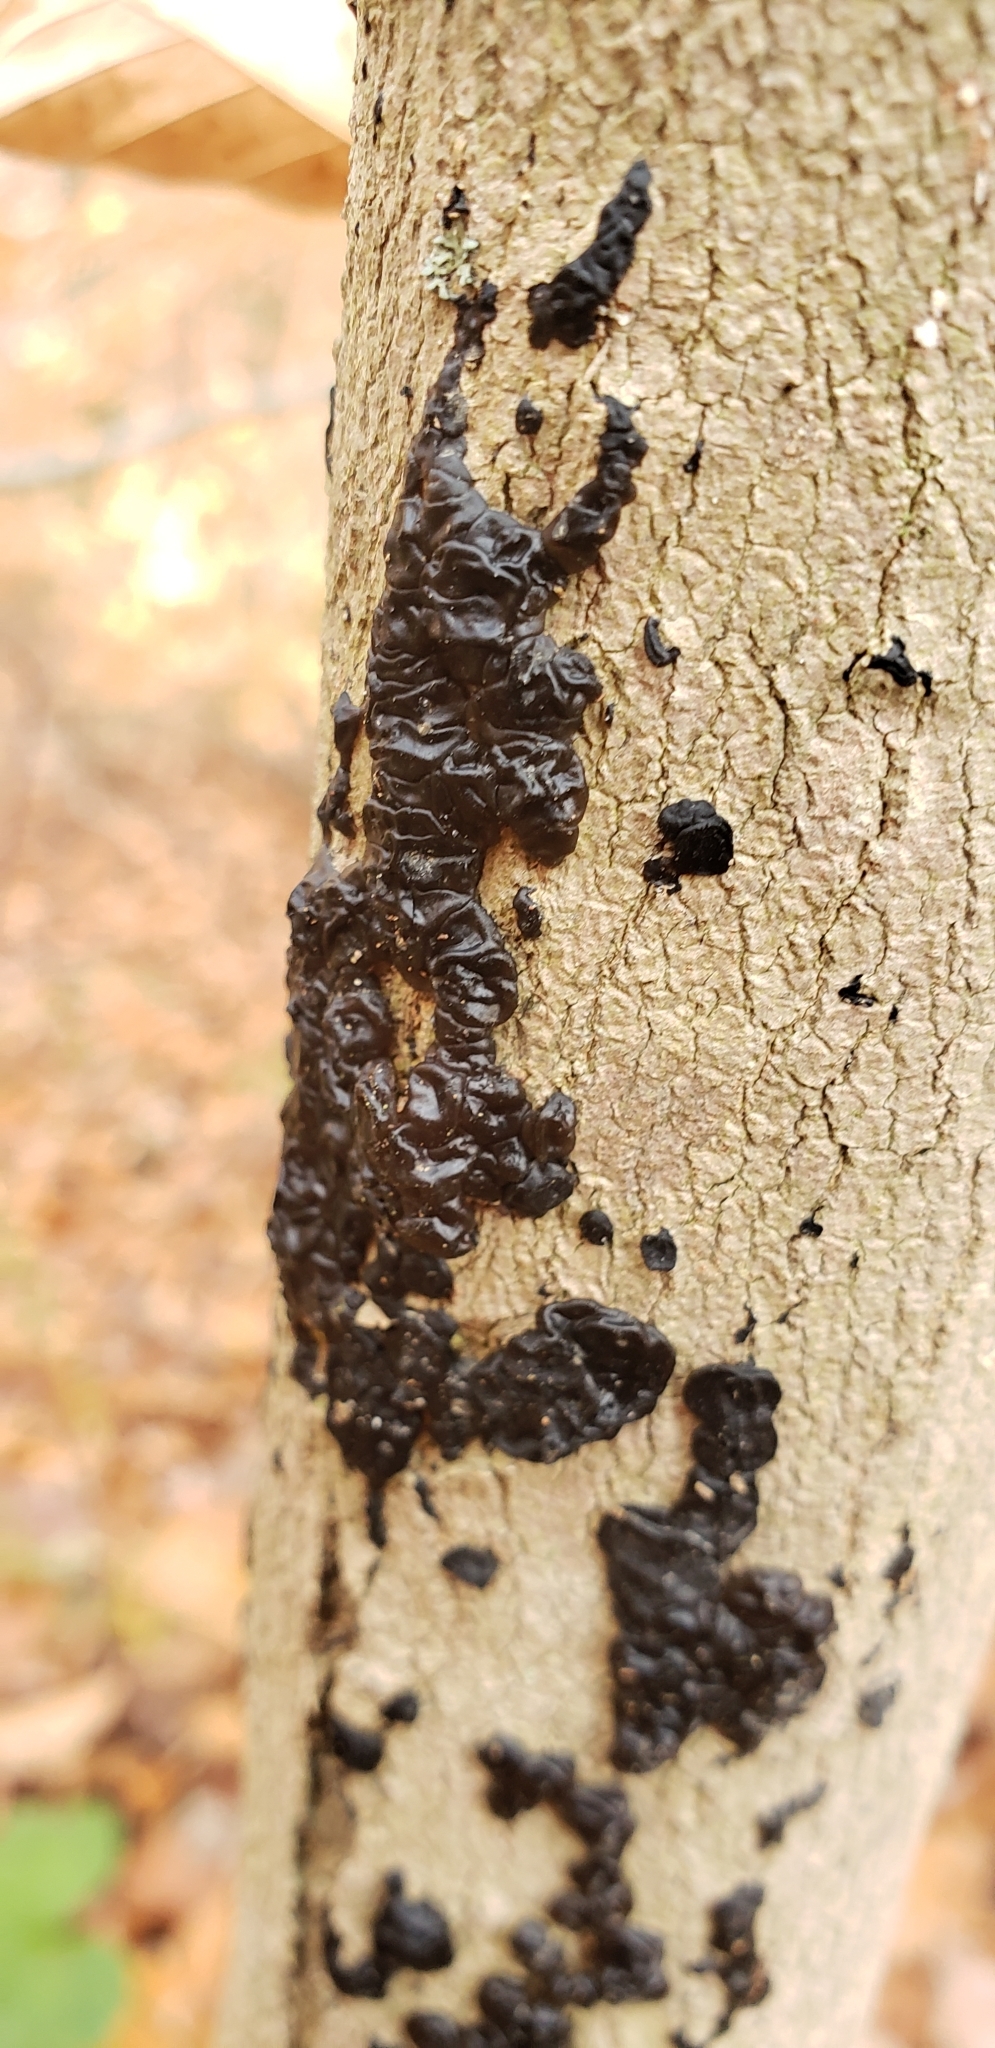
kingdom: Fungi
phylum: Basidiomycota
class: Agaricomycetes
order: Auriculariales
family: Auriculariaceae
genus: Exidia
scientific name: Exidia nigricans
